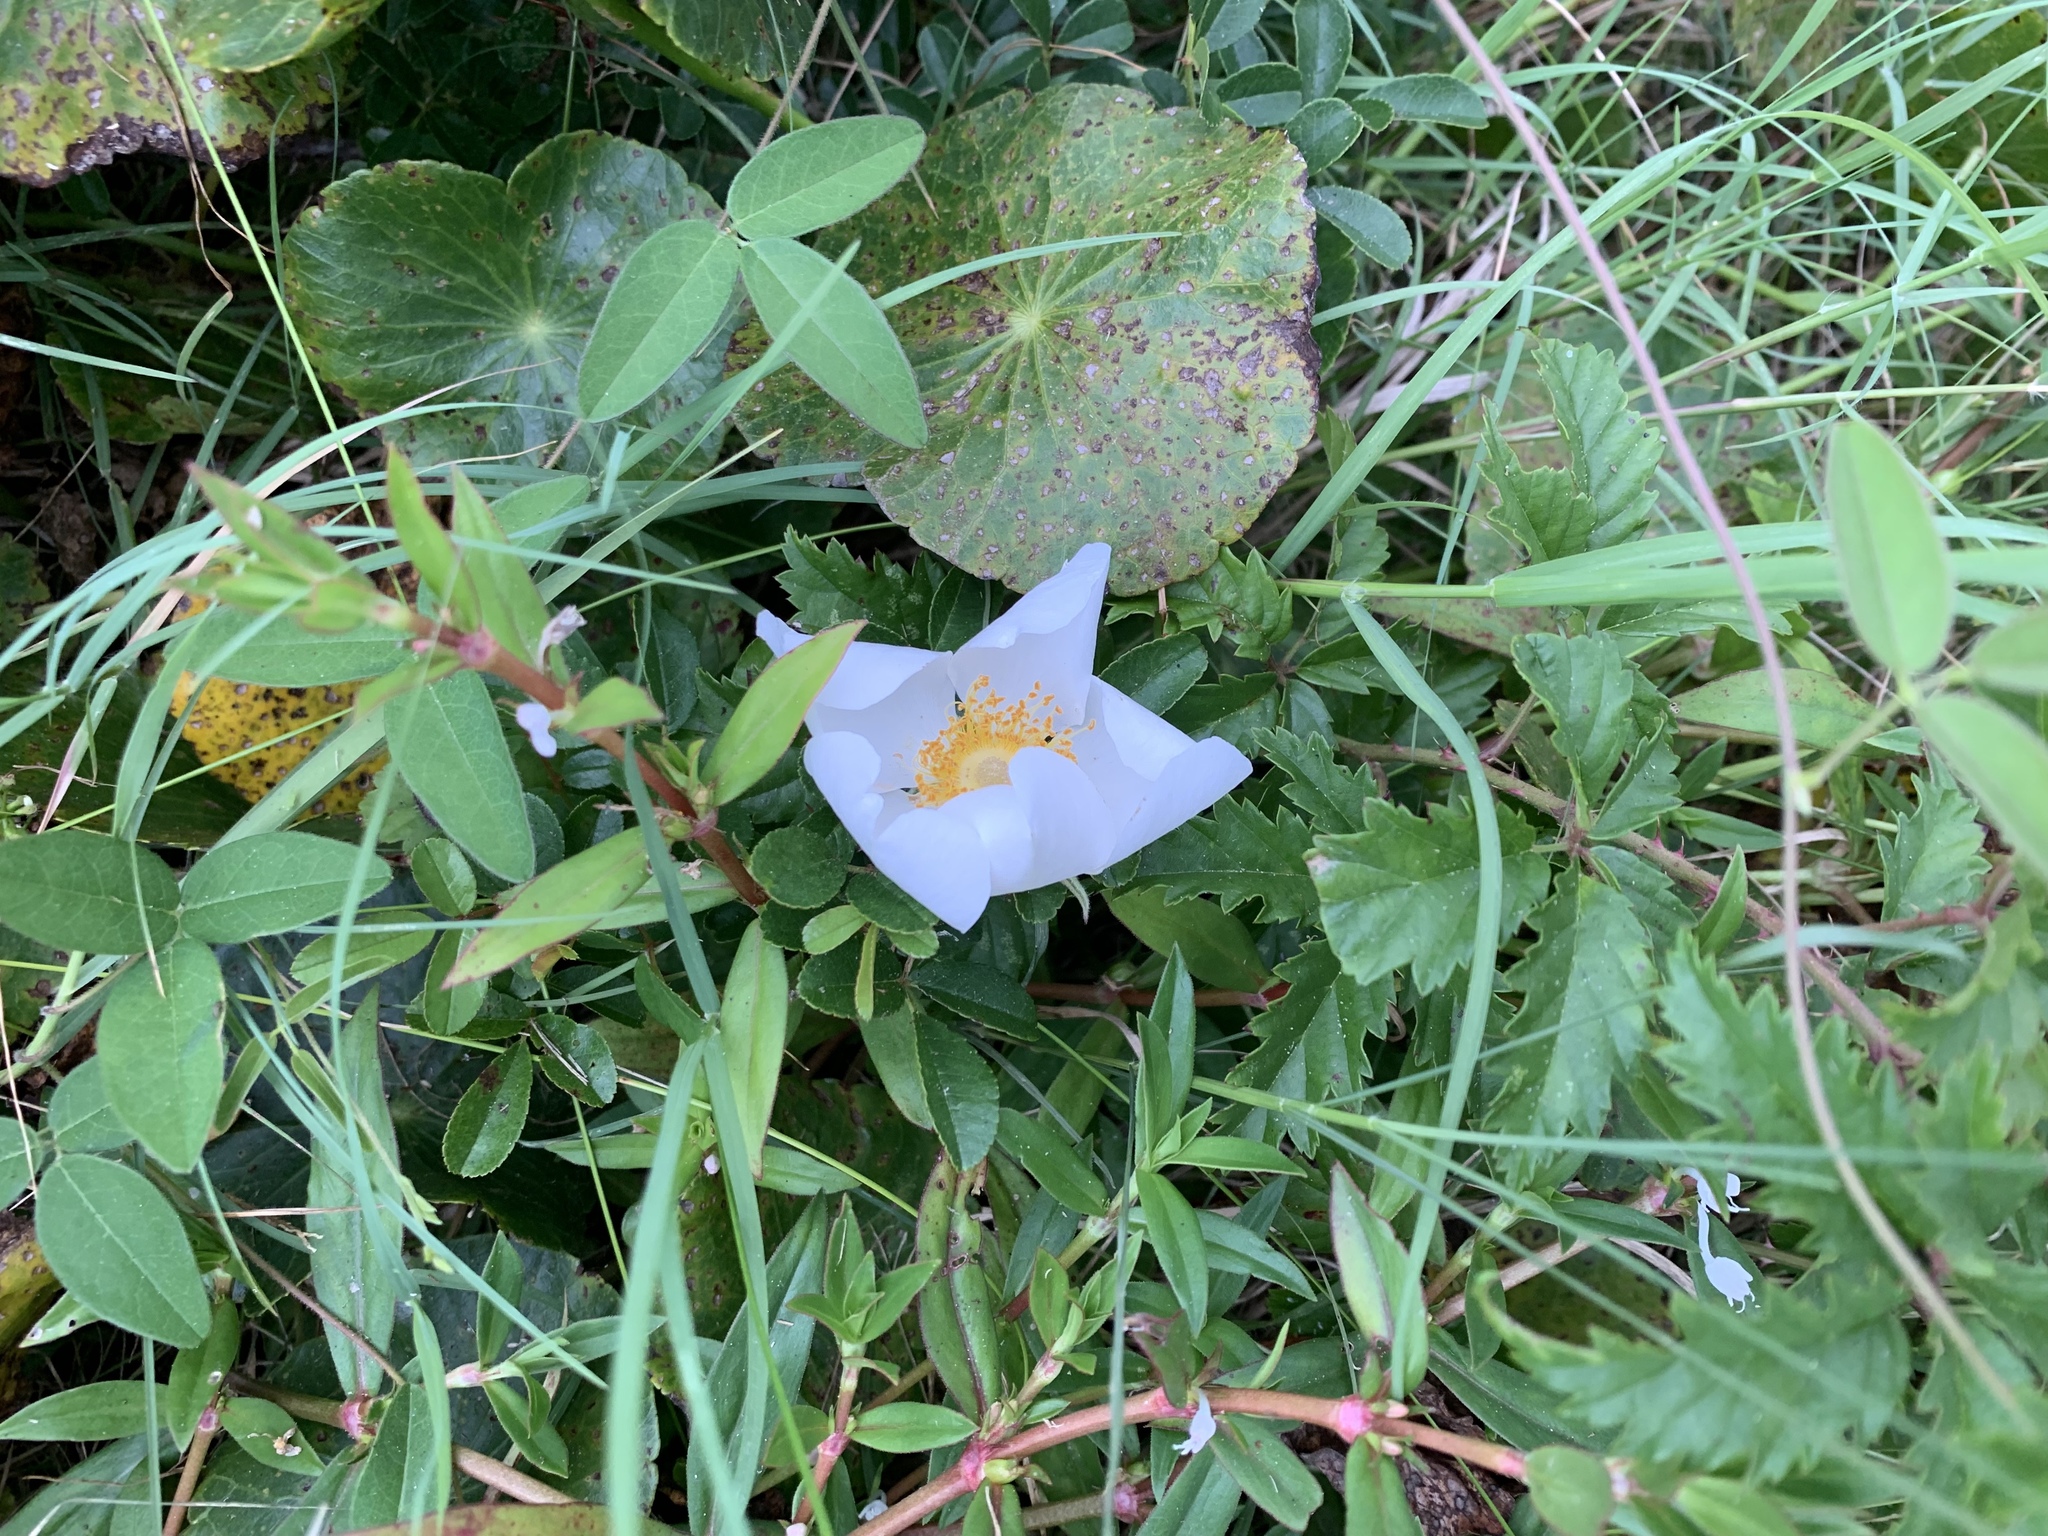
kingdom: Plantae
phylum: Tracheophyta
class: Magnoliopsida
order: Rosales
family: Rosaceae
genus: Rosa
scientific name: Rosa bracteata
